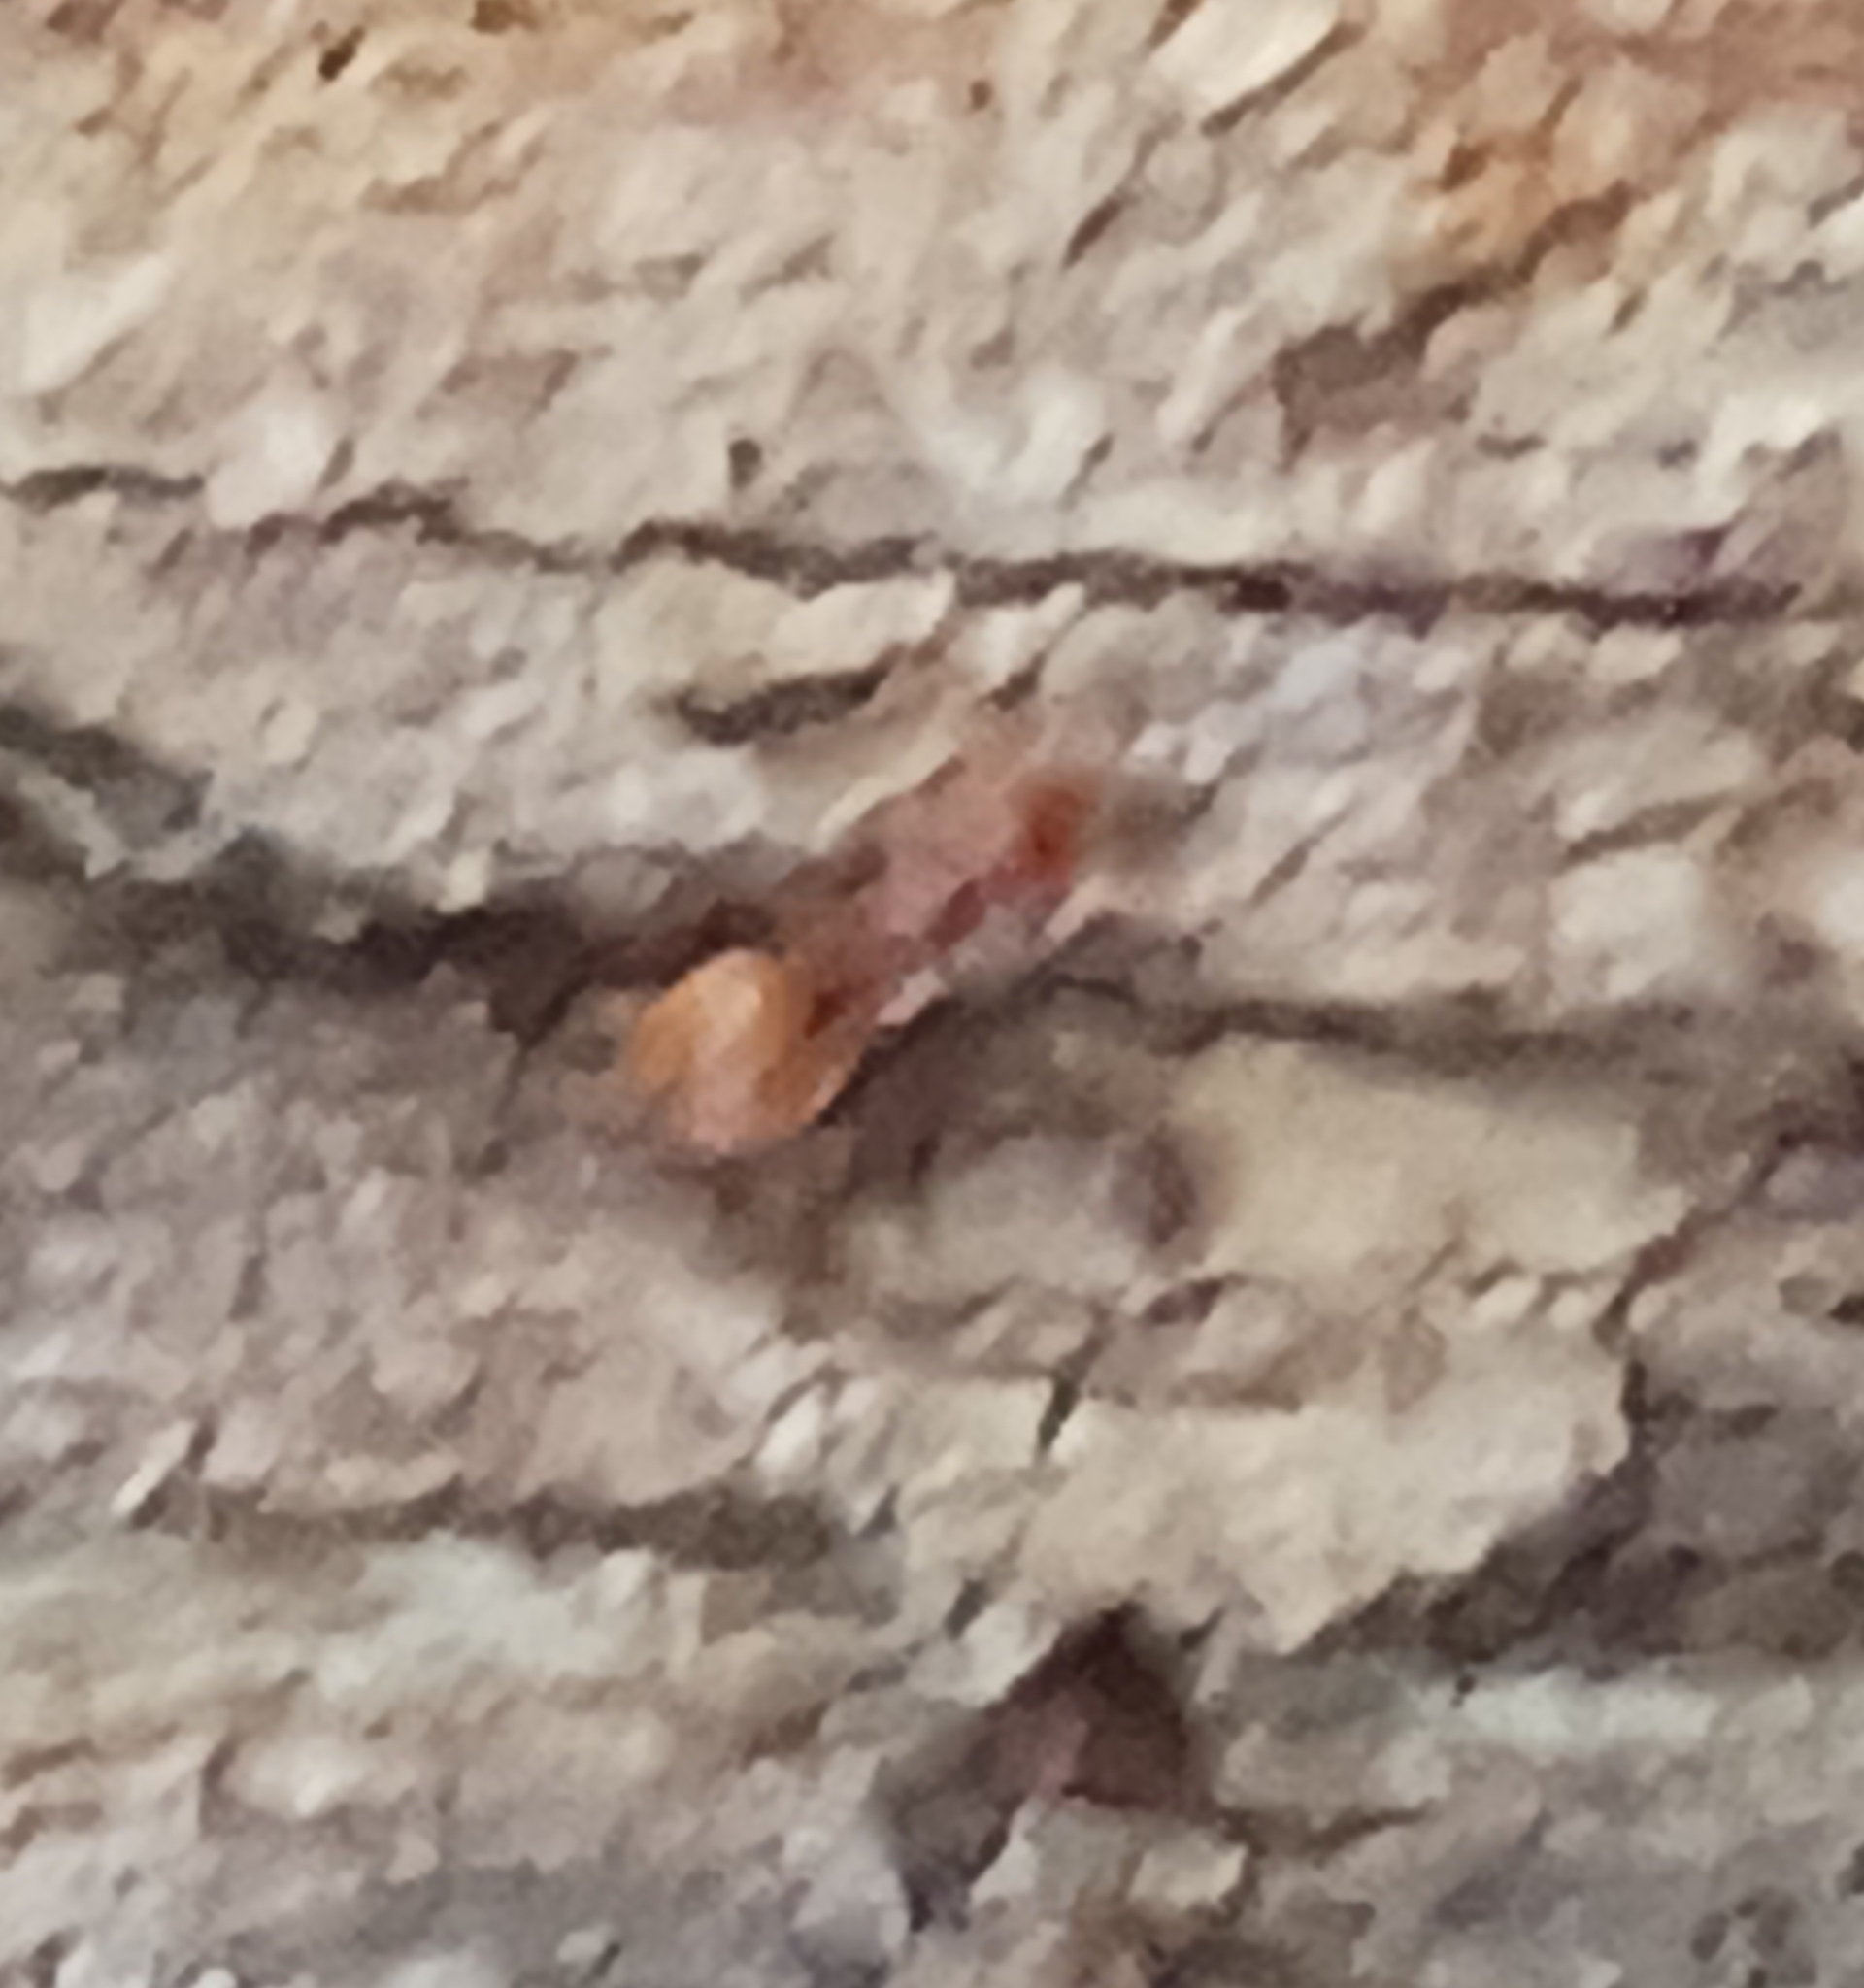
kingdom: Animalia
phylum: Arthropoda
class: Insecta
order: Hymenoptera
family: Formicidae
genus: Cephalotes
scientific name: Cephalotes clypeatus
